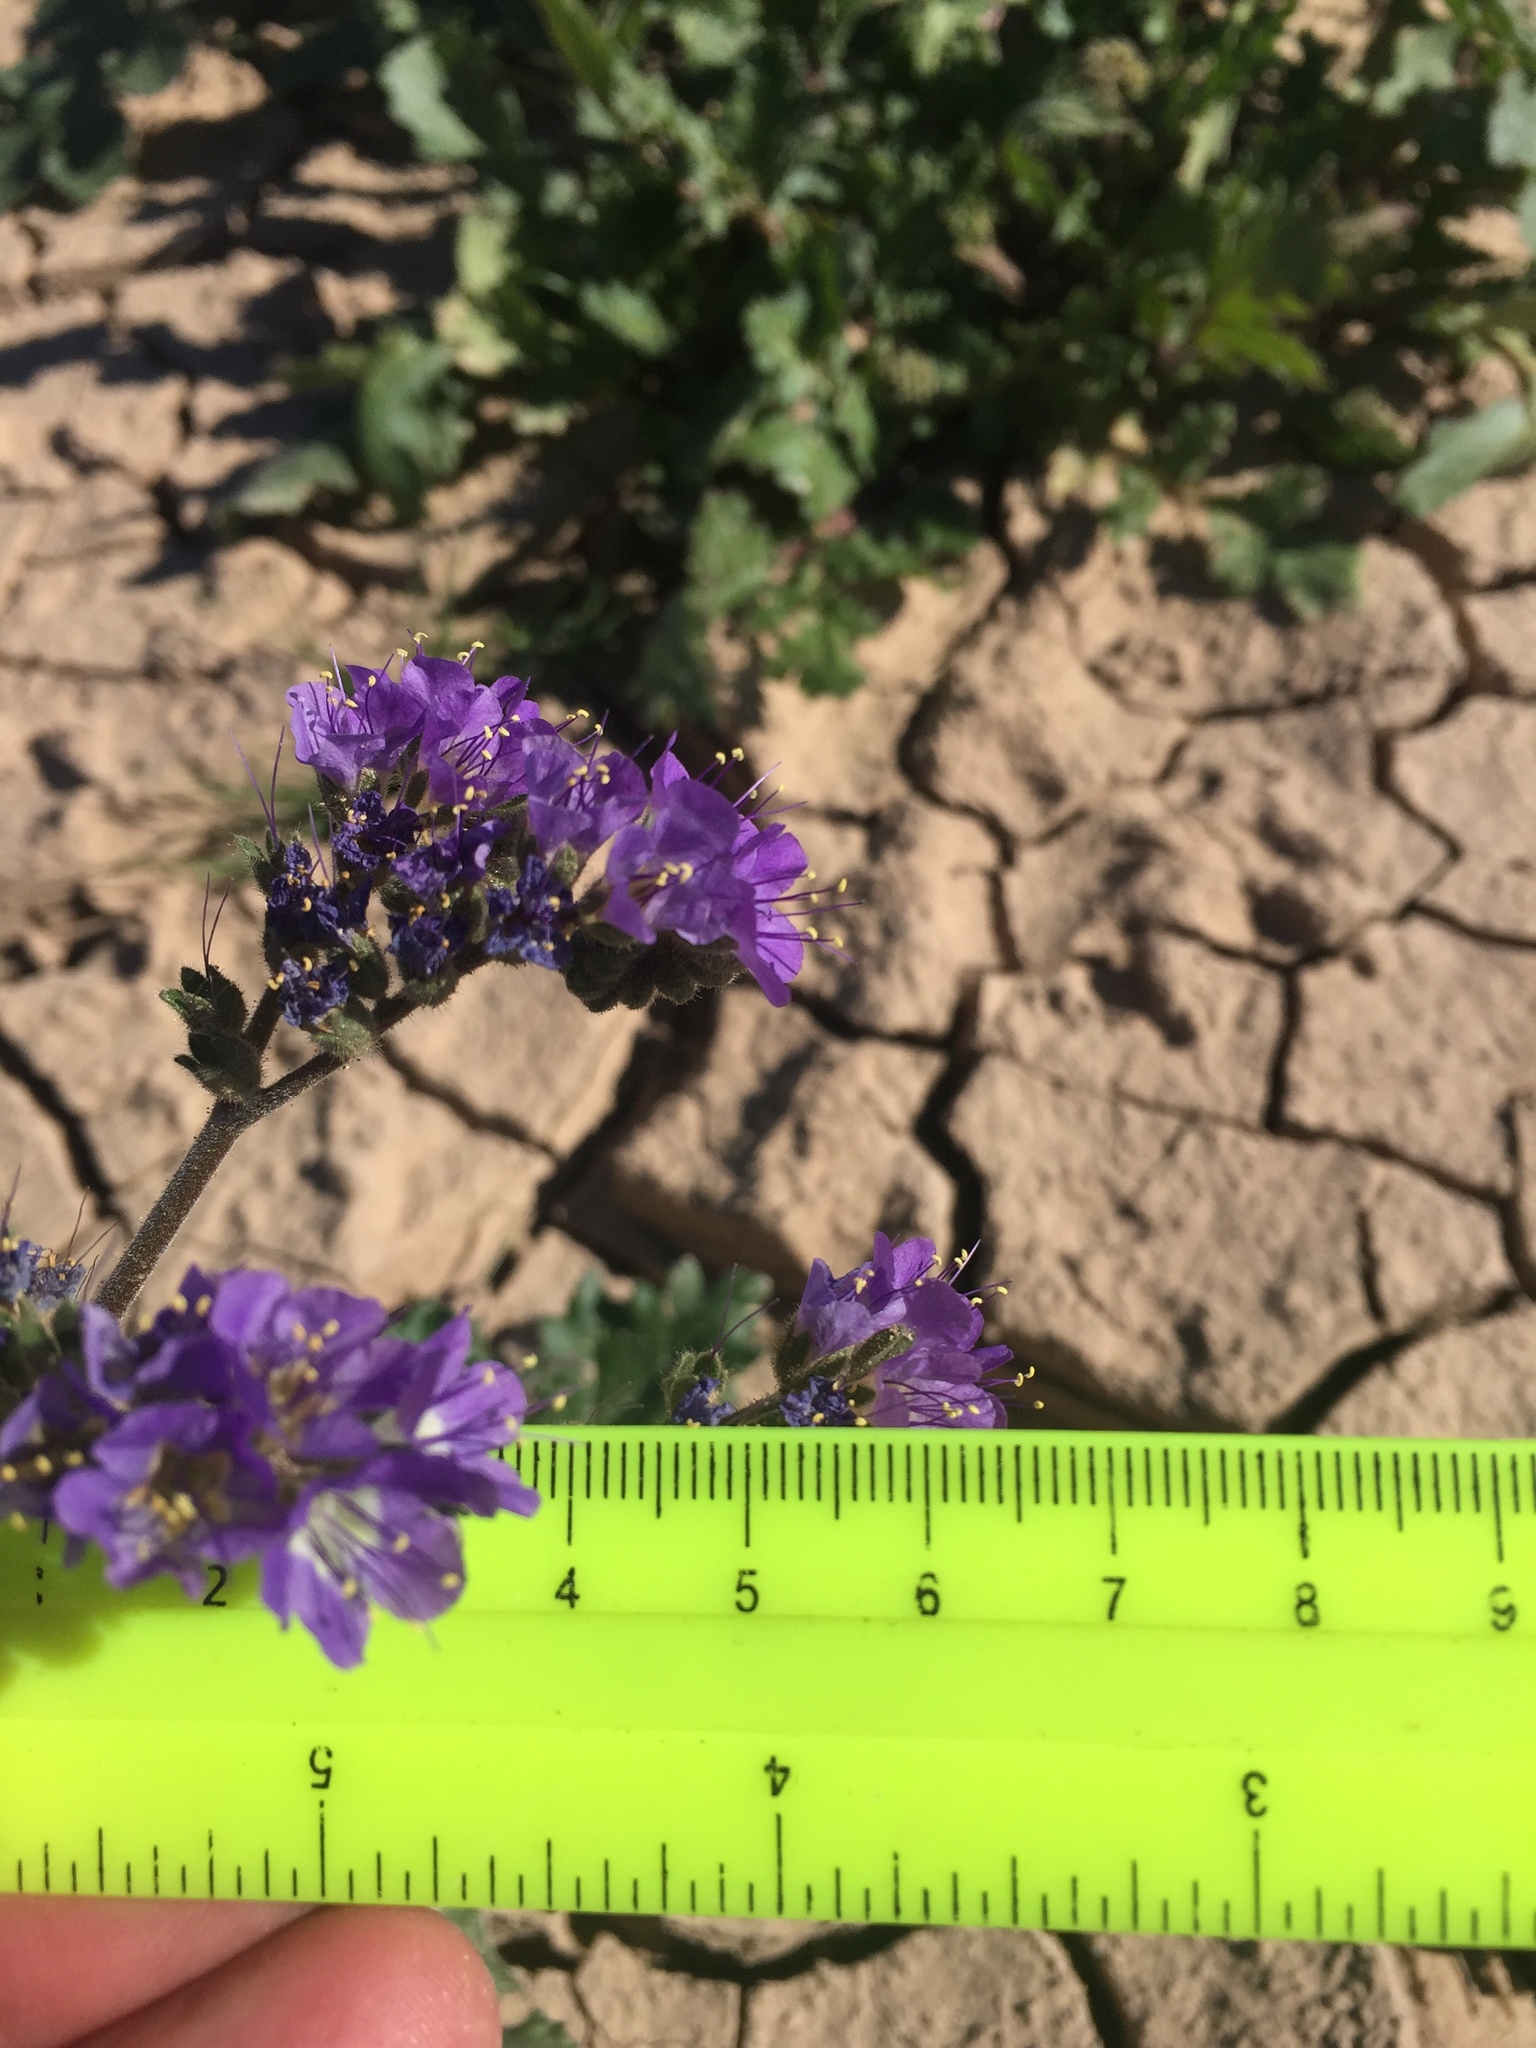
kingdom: Plantae
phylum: Tracheophyta
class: Magnoliopsida
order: Boraginales
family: Hydrophyllaceae
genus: Phacelia
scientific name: Phacelia crenulata
